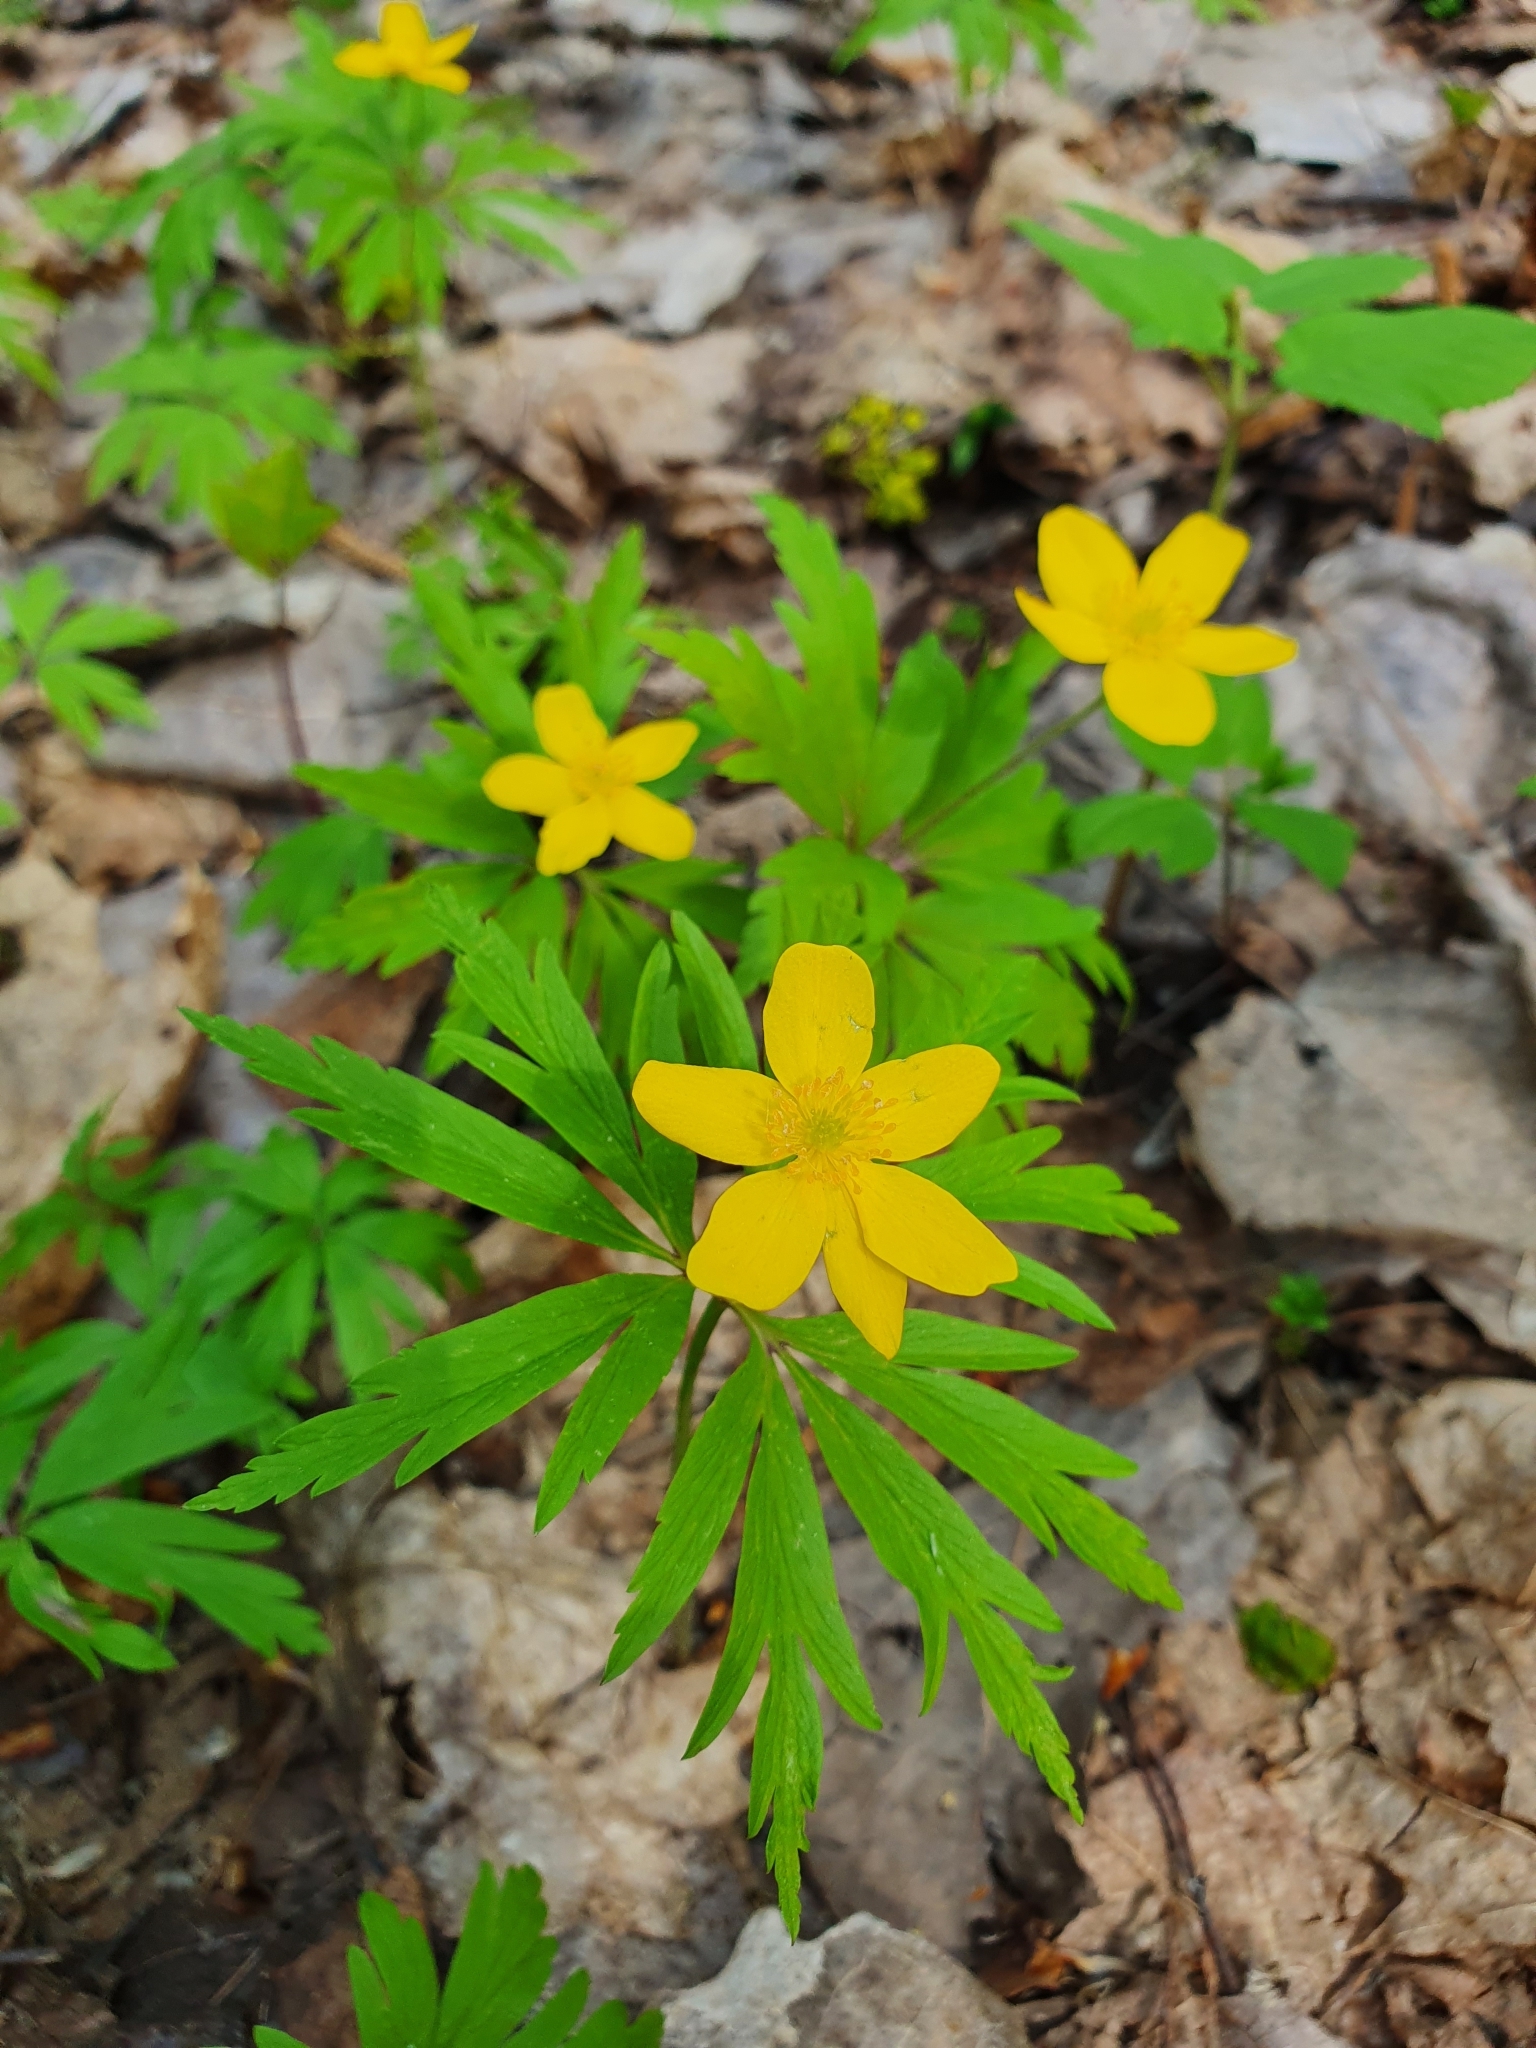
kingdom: Plantae
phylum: Tracheophyta
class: Magnoliopsida
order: Ranunculales
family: Ranunculaceae
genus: Anemone
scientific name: Anemone ranunculoides
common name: Yellow anemone
